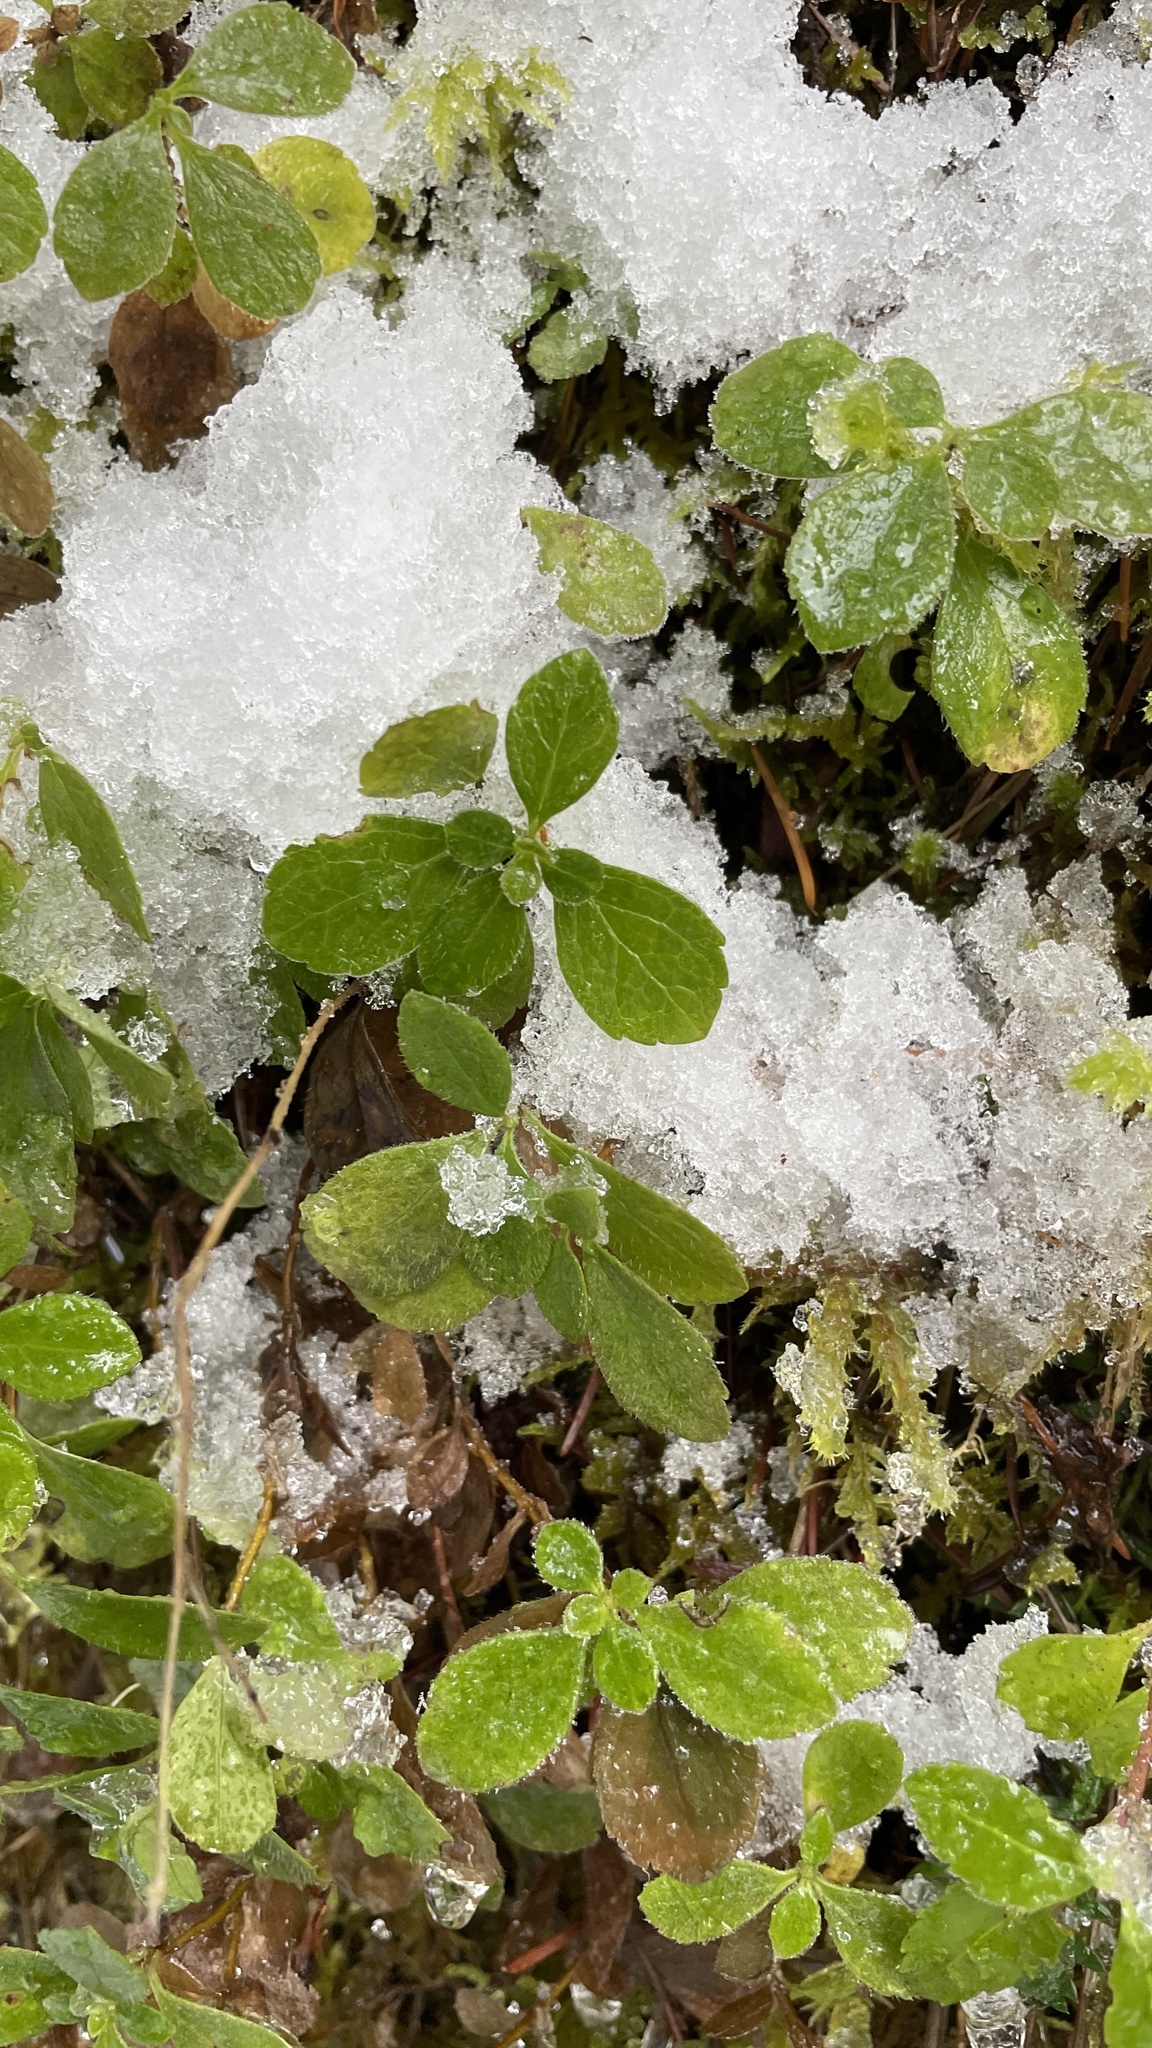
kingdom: Plantae
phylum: Tracheophyta
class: Magnoliopsida
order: Dipsacales
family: Caprifoliaceae
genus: Linnaea
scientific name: Linnaea borealis
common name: Twinflower
